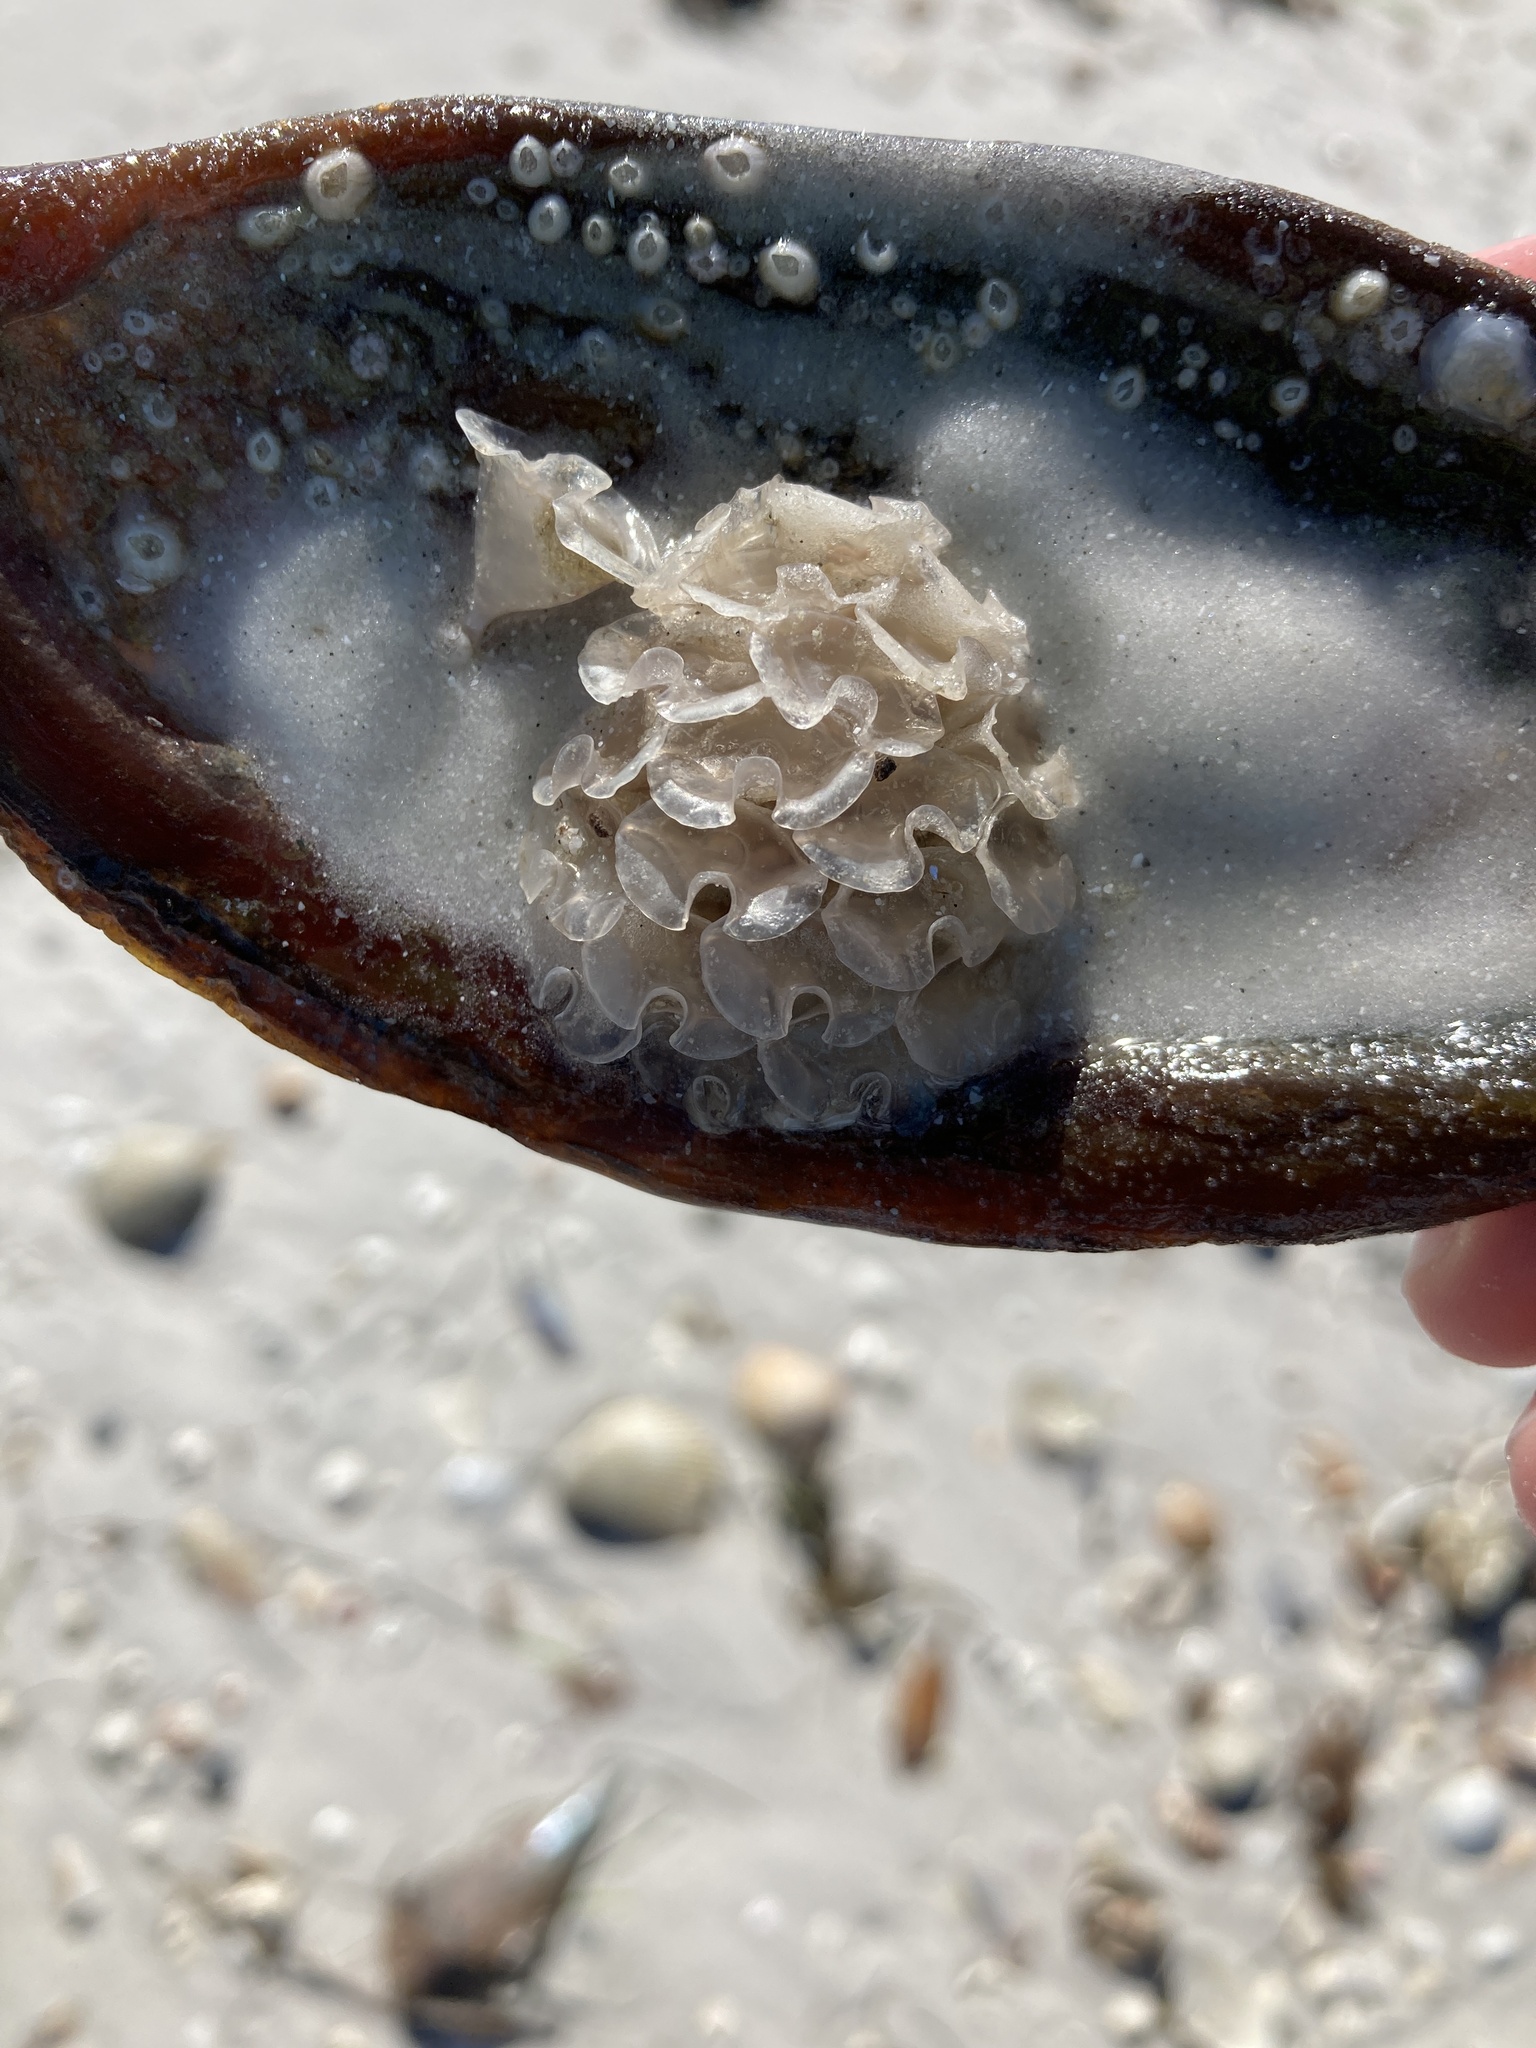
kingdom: Animalia
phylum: Mollusca
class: Gastropoda
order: Neogastropoda
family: Fasciolariidae
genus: Cinctura
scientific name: Cinctura hunteria
